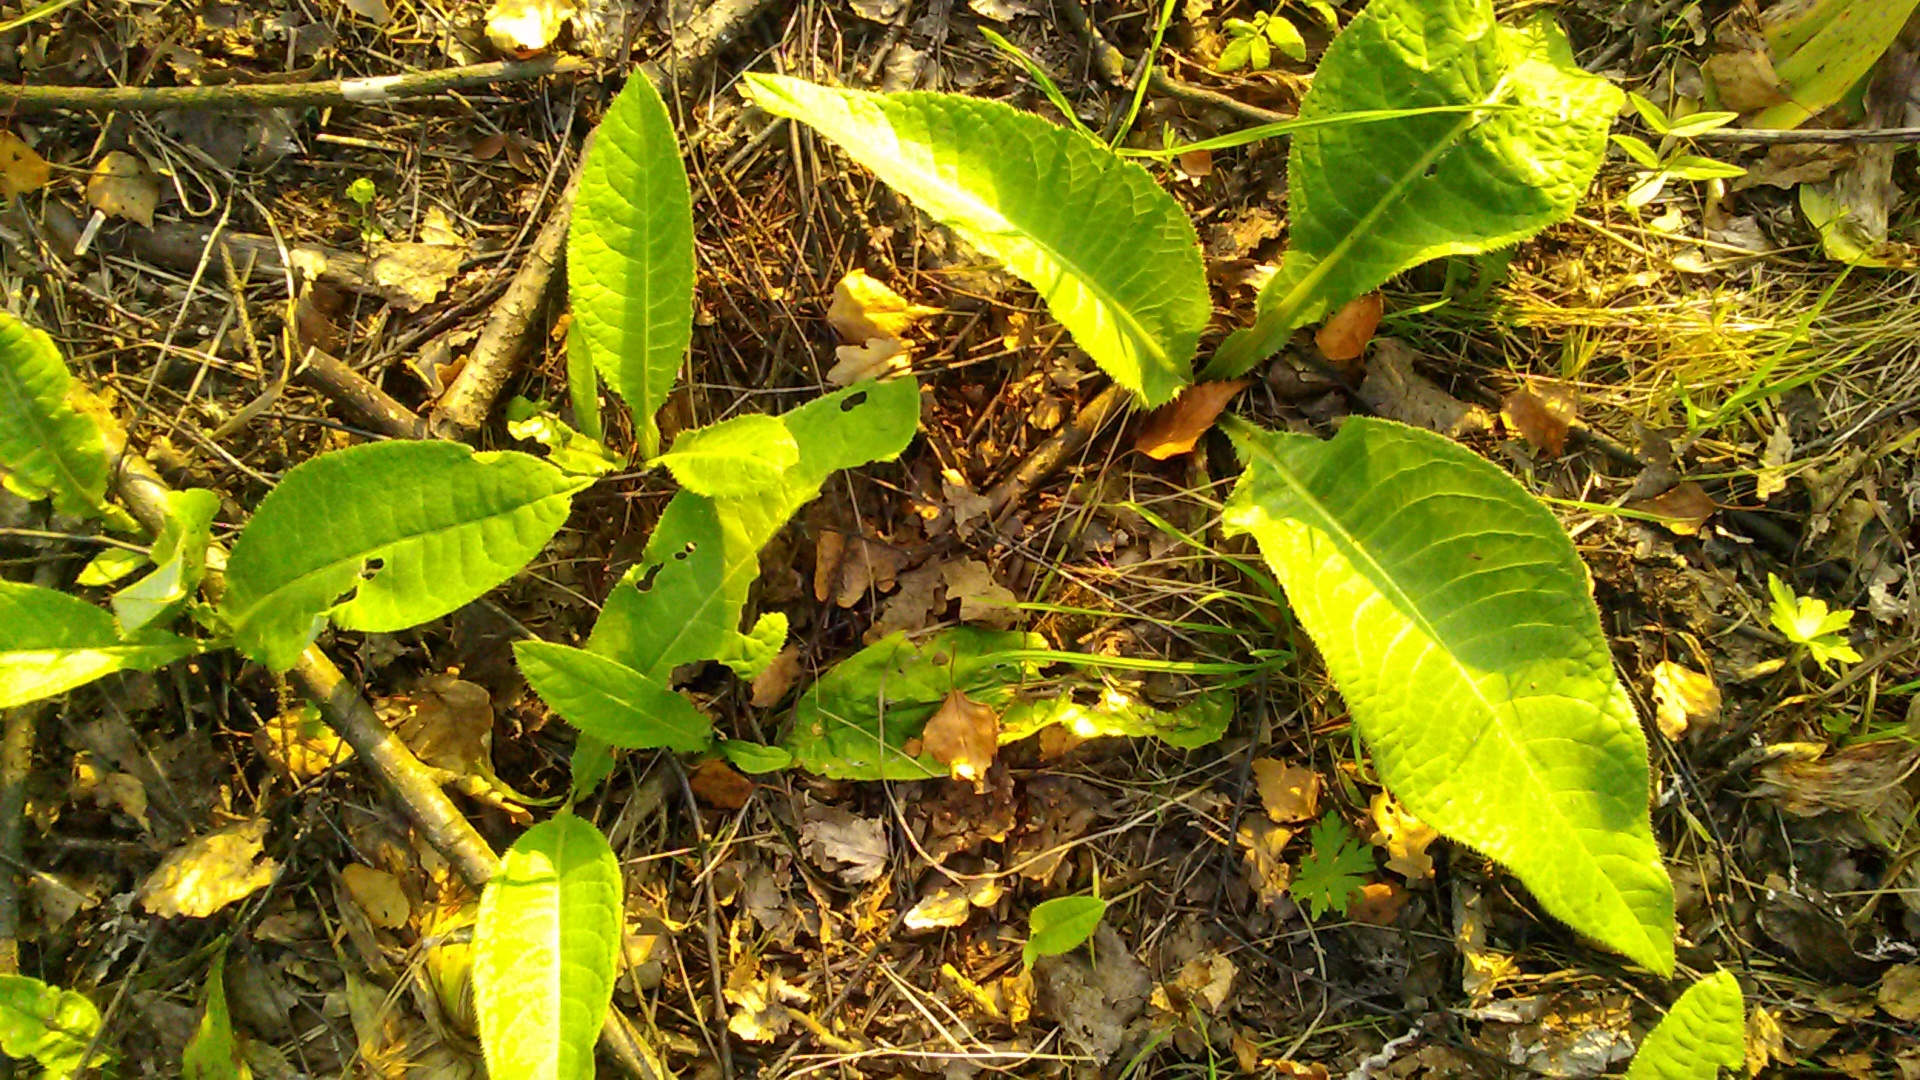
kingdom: Plantae
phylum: Tracheophyta
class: Magnoliopsida
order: Asterales
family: Asteraceae
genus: Cirsium
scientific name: Cirsium heterophyllum
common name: Melancholy thistle
